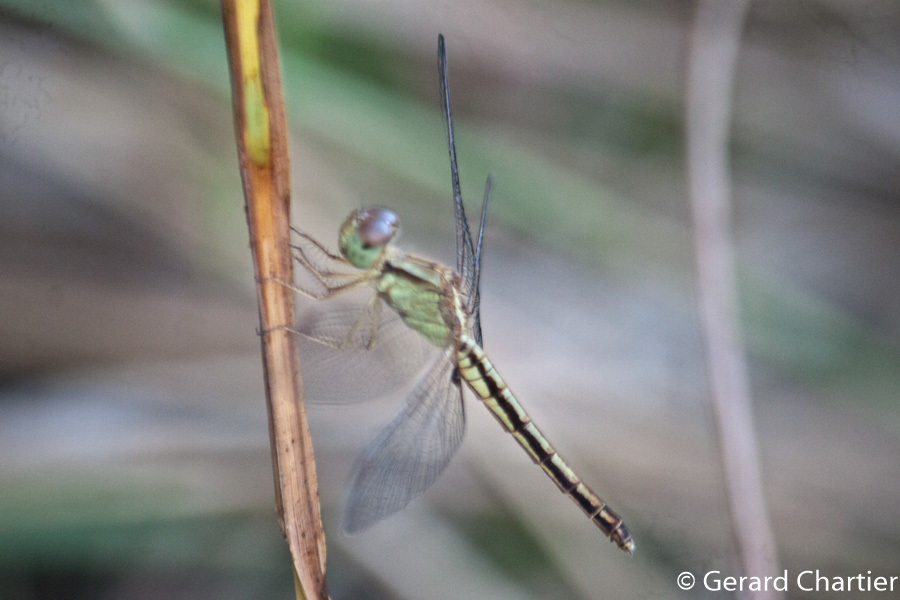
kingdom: Animalia
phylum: Arthropoda
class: Insecta
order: Odonata
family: Libellulidae
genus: Neurothemis
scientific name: Neurothemis intermedia
